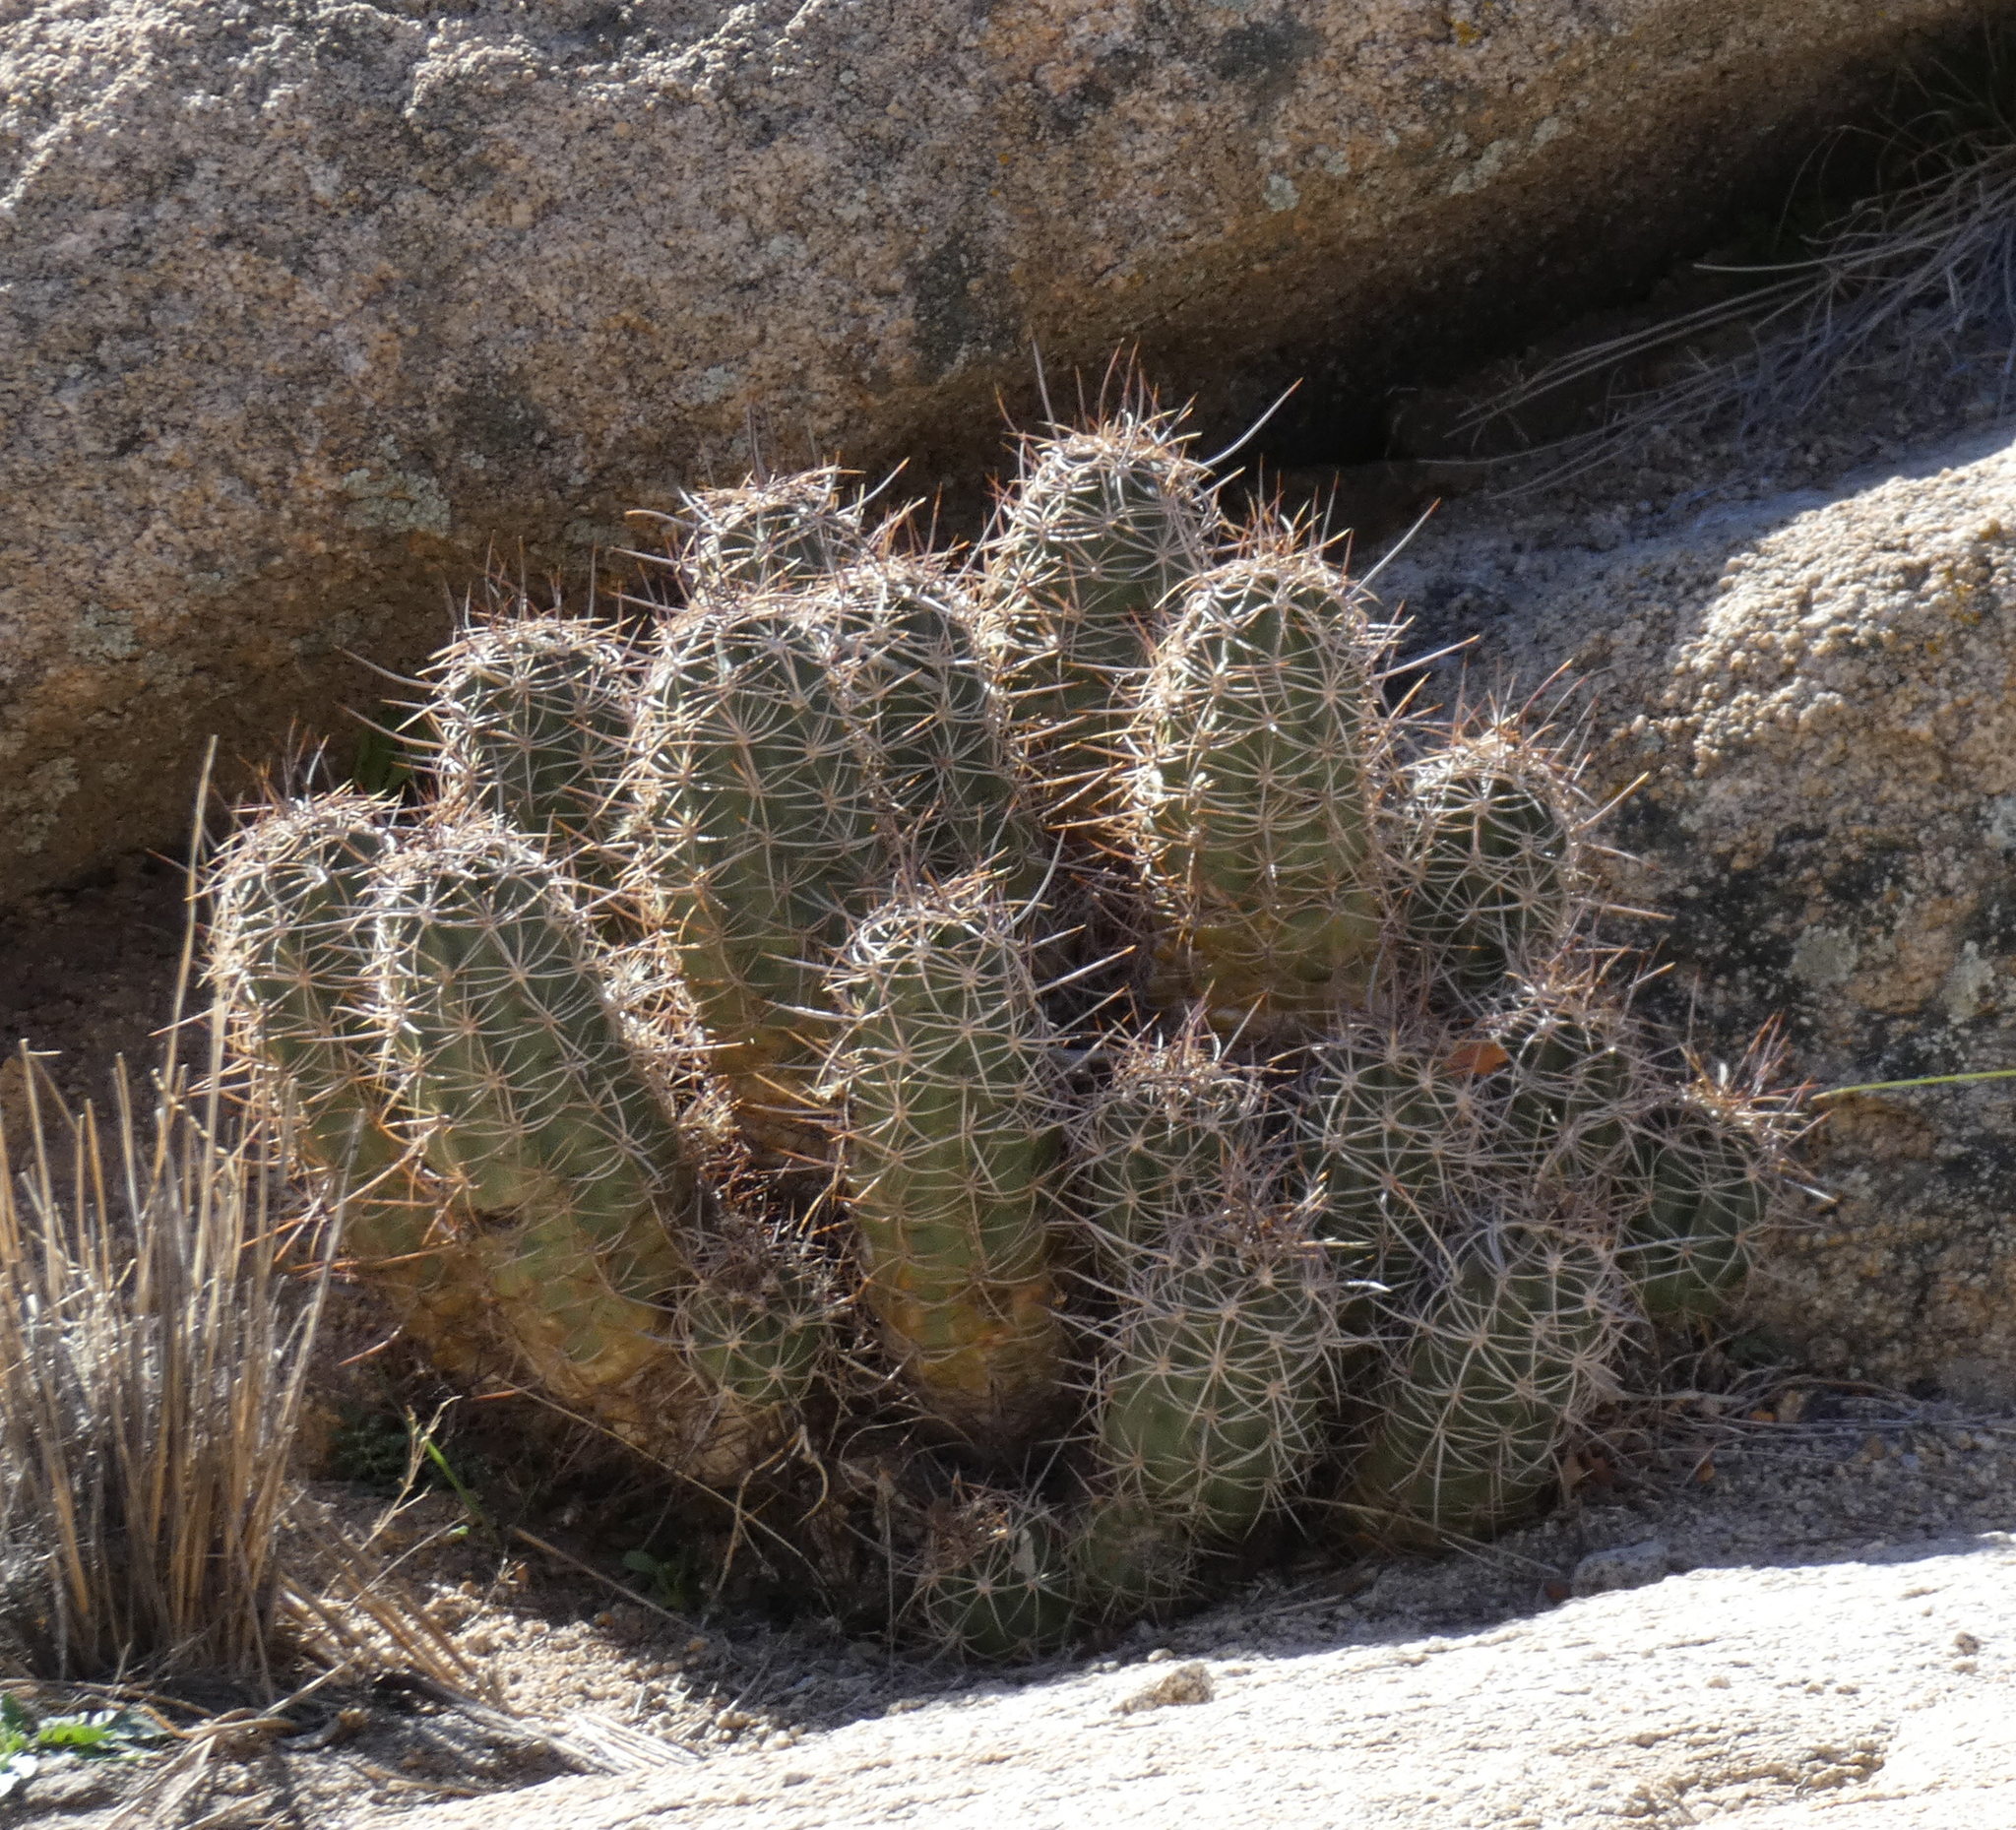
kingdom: Plantae
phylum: Tracheophyta
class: Magnoliopsida
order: Caryophyllales
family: Cactaceae
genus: Echinocereus
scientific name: Echinocereus triglochidiatus
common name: Claretcup hedgehog
